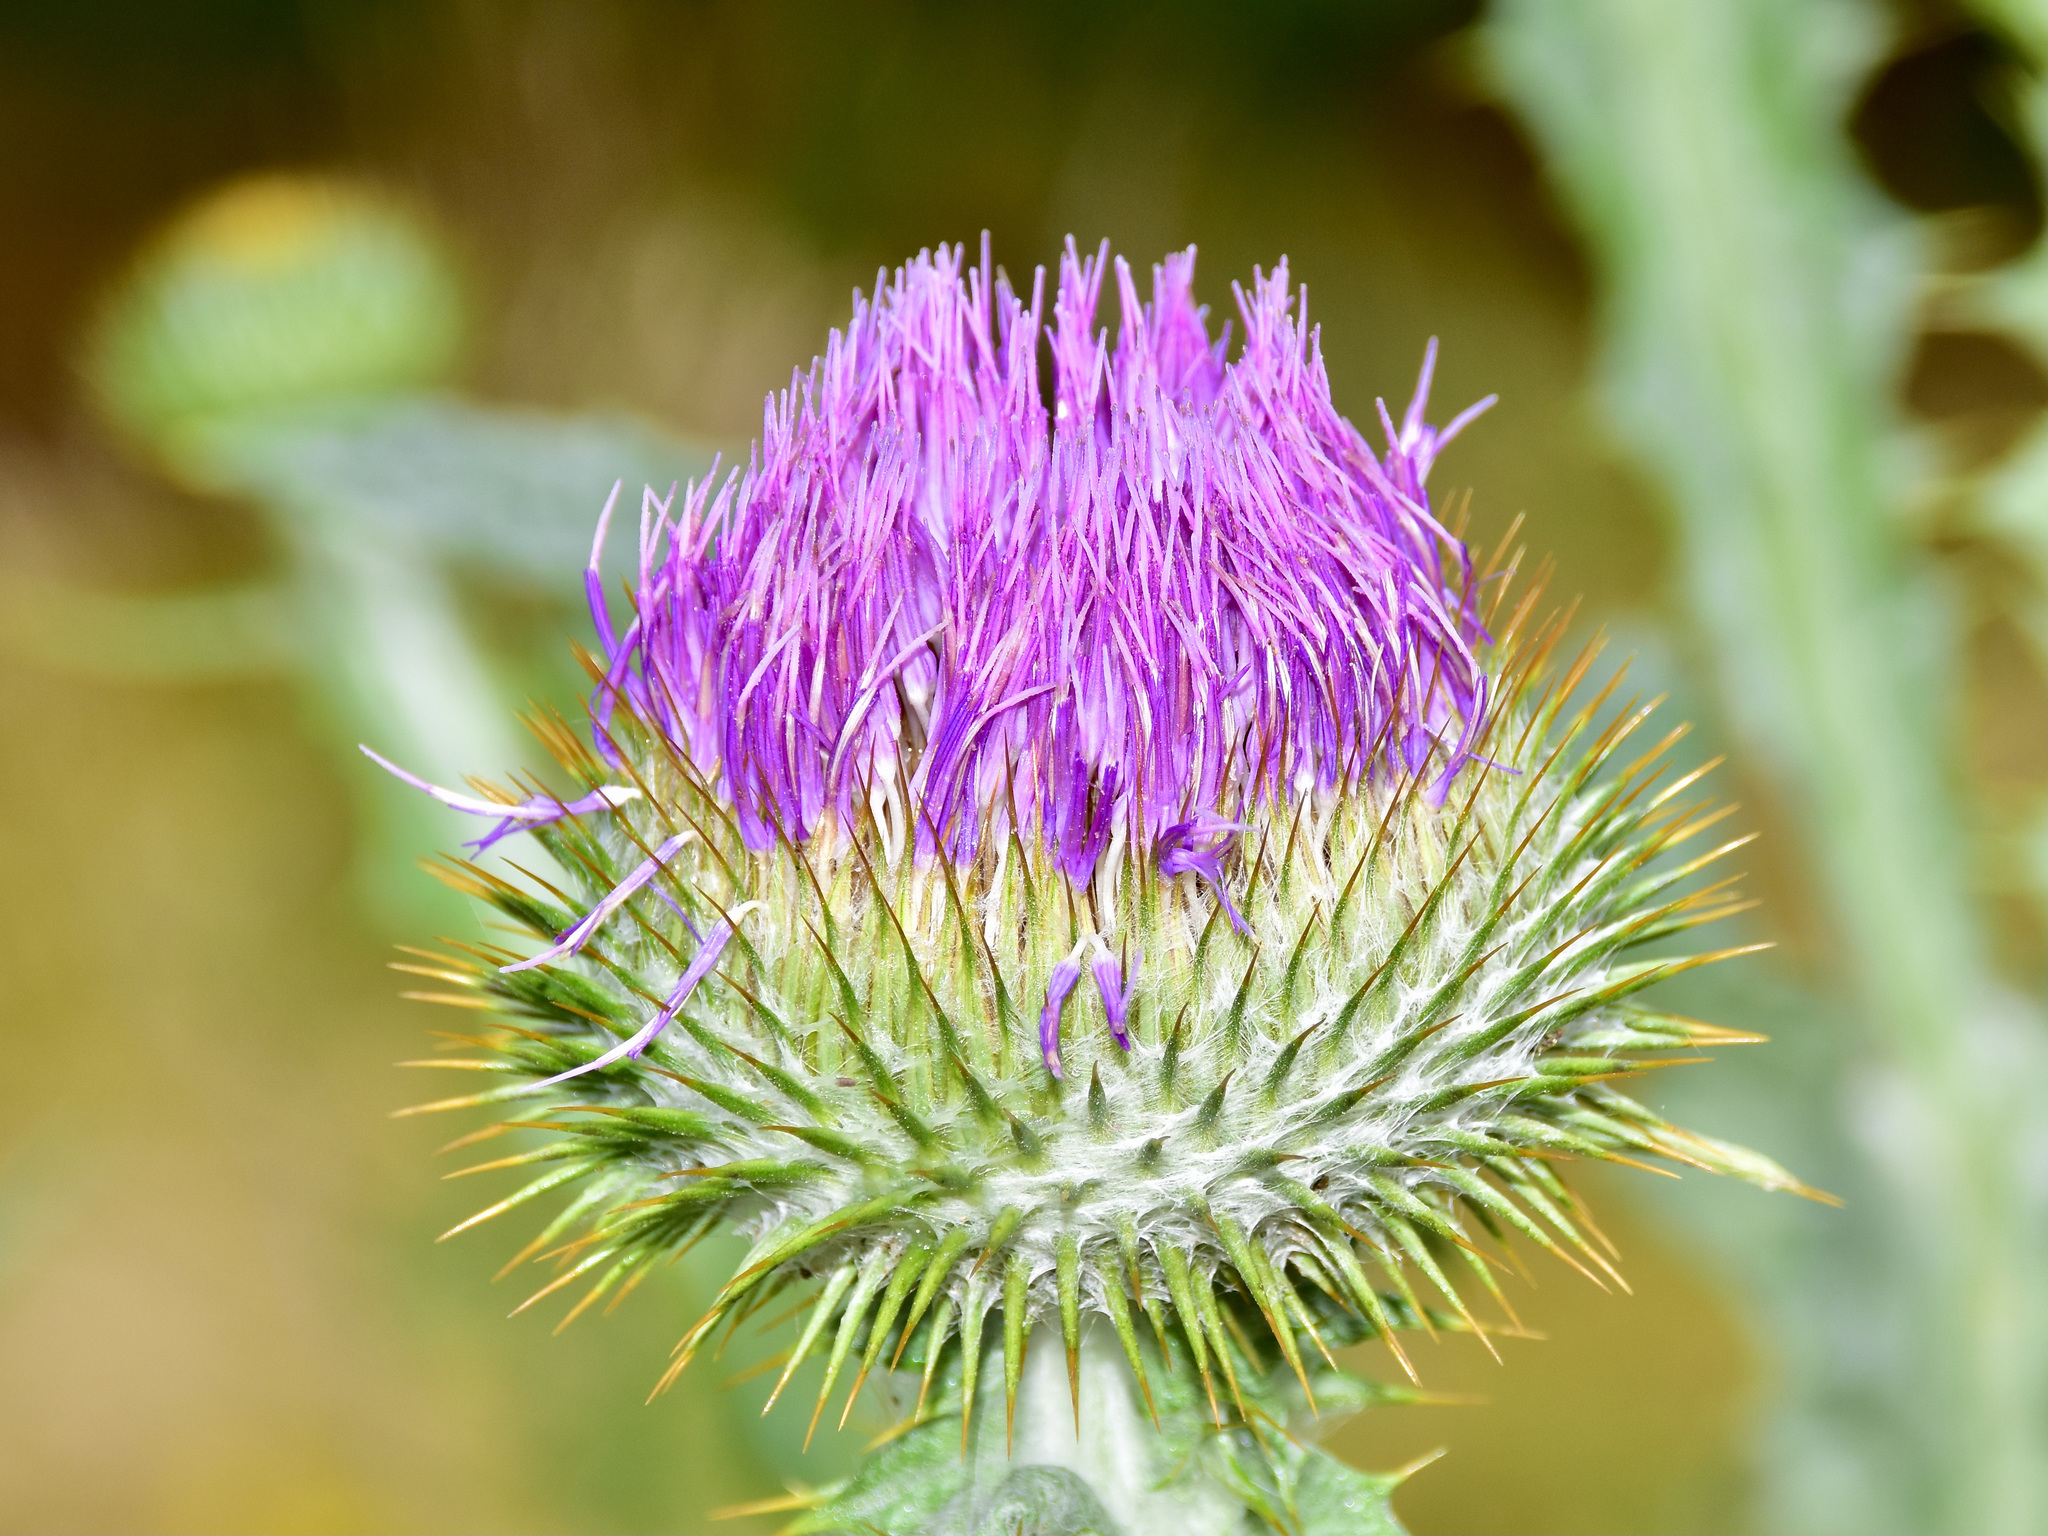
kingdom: Plantae
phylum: Tracheophyta
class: Magnoliopsida
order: Asterales
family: Asteraceae
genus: Onopordum
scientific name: Onopordum acanthium
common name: Scotch thistle
